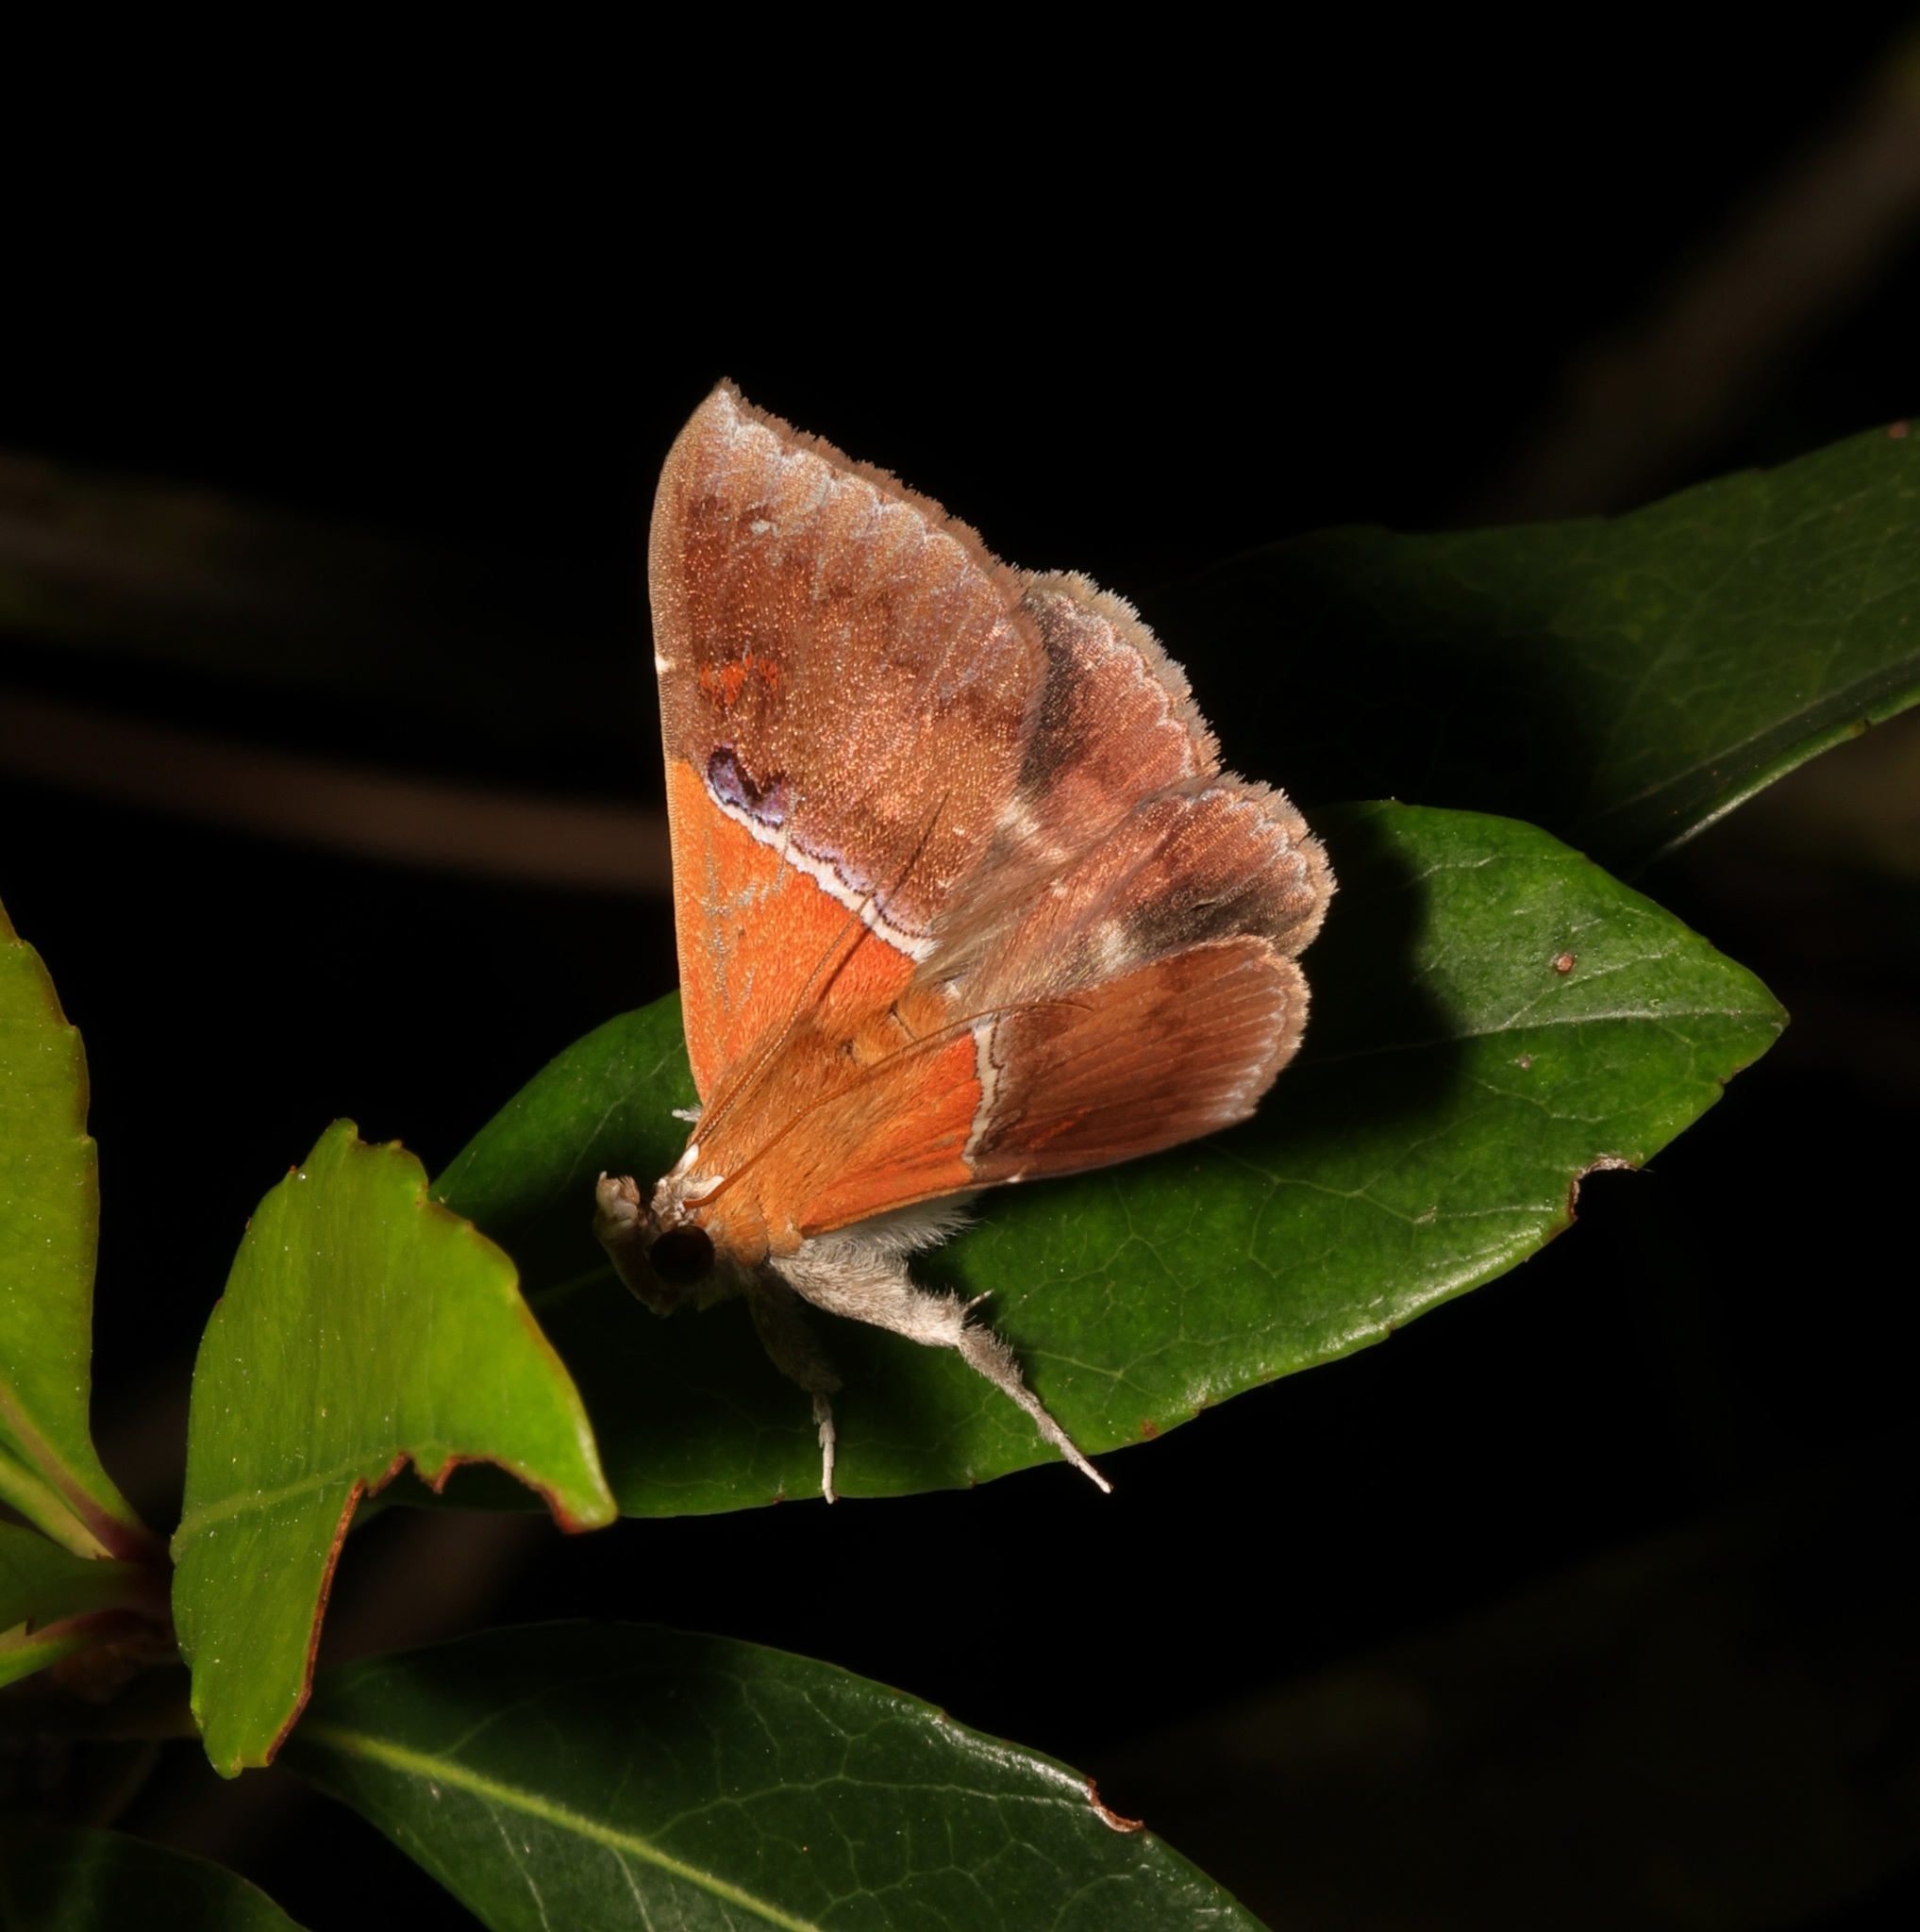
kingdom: Animalia
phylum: Arthropoda
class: Insecta
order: Lepidoptera
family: Erebidae
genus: Sympis
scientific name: Sympis rufibasis
